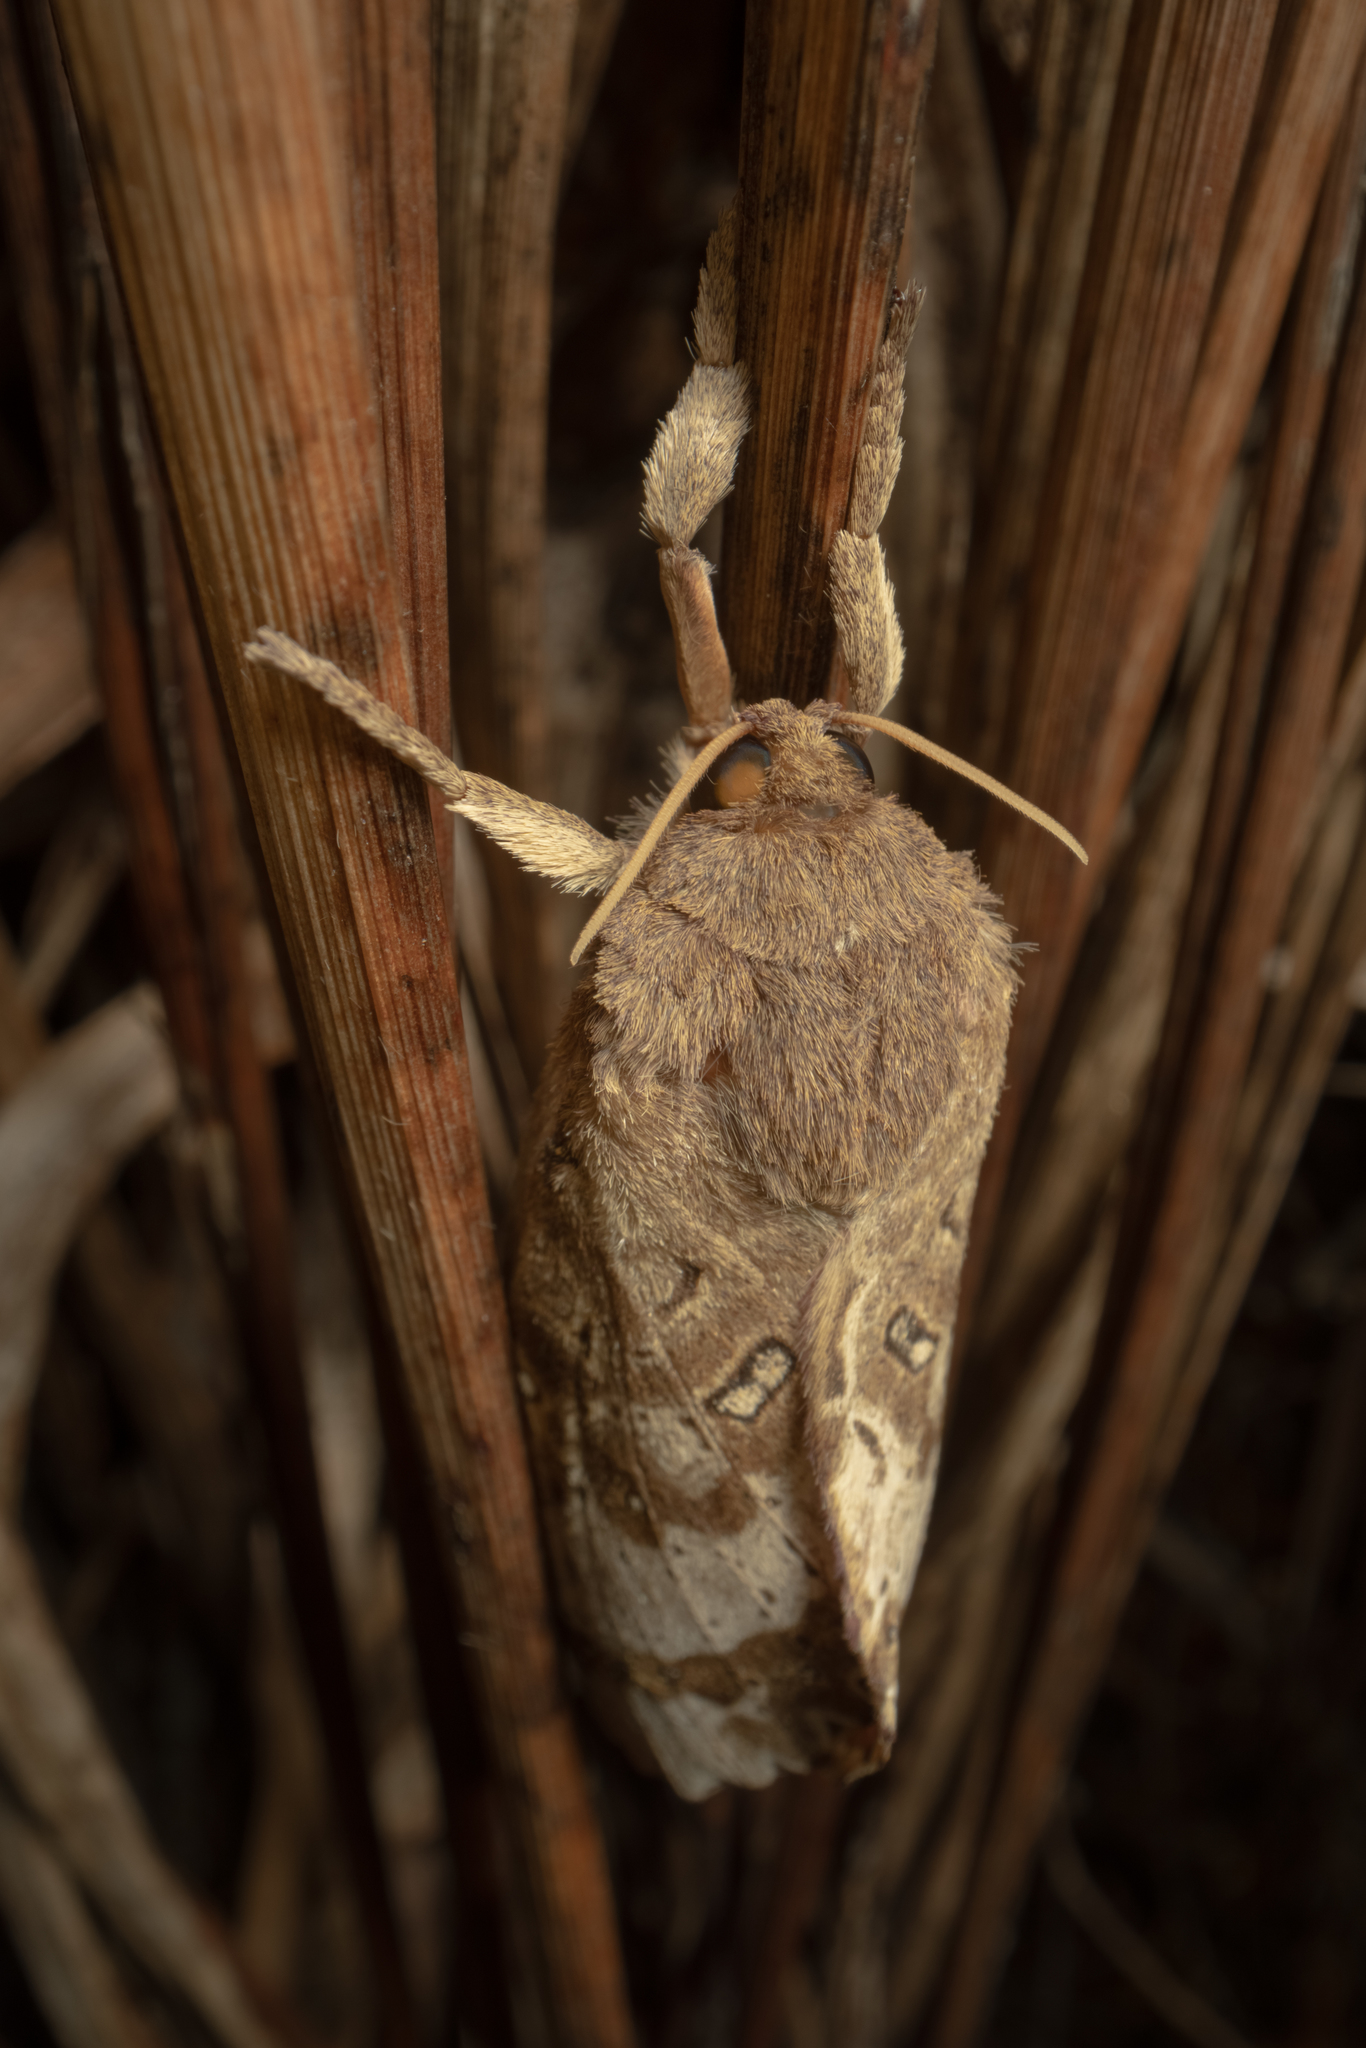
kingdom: Animalia
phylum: Arthropoda
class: Insecta
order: Lepidoptera
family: Hepialidae
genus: Dumbletonius
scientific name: Dumbletonius unimaculata
